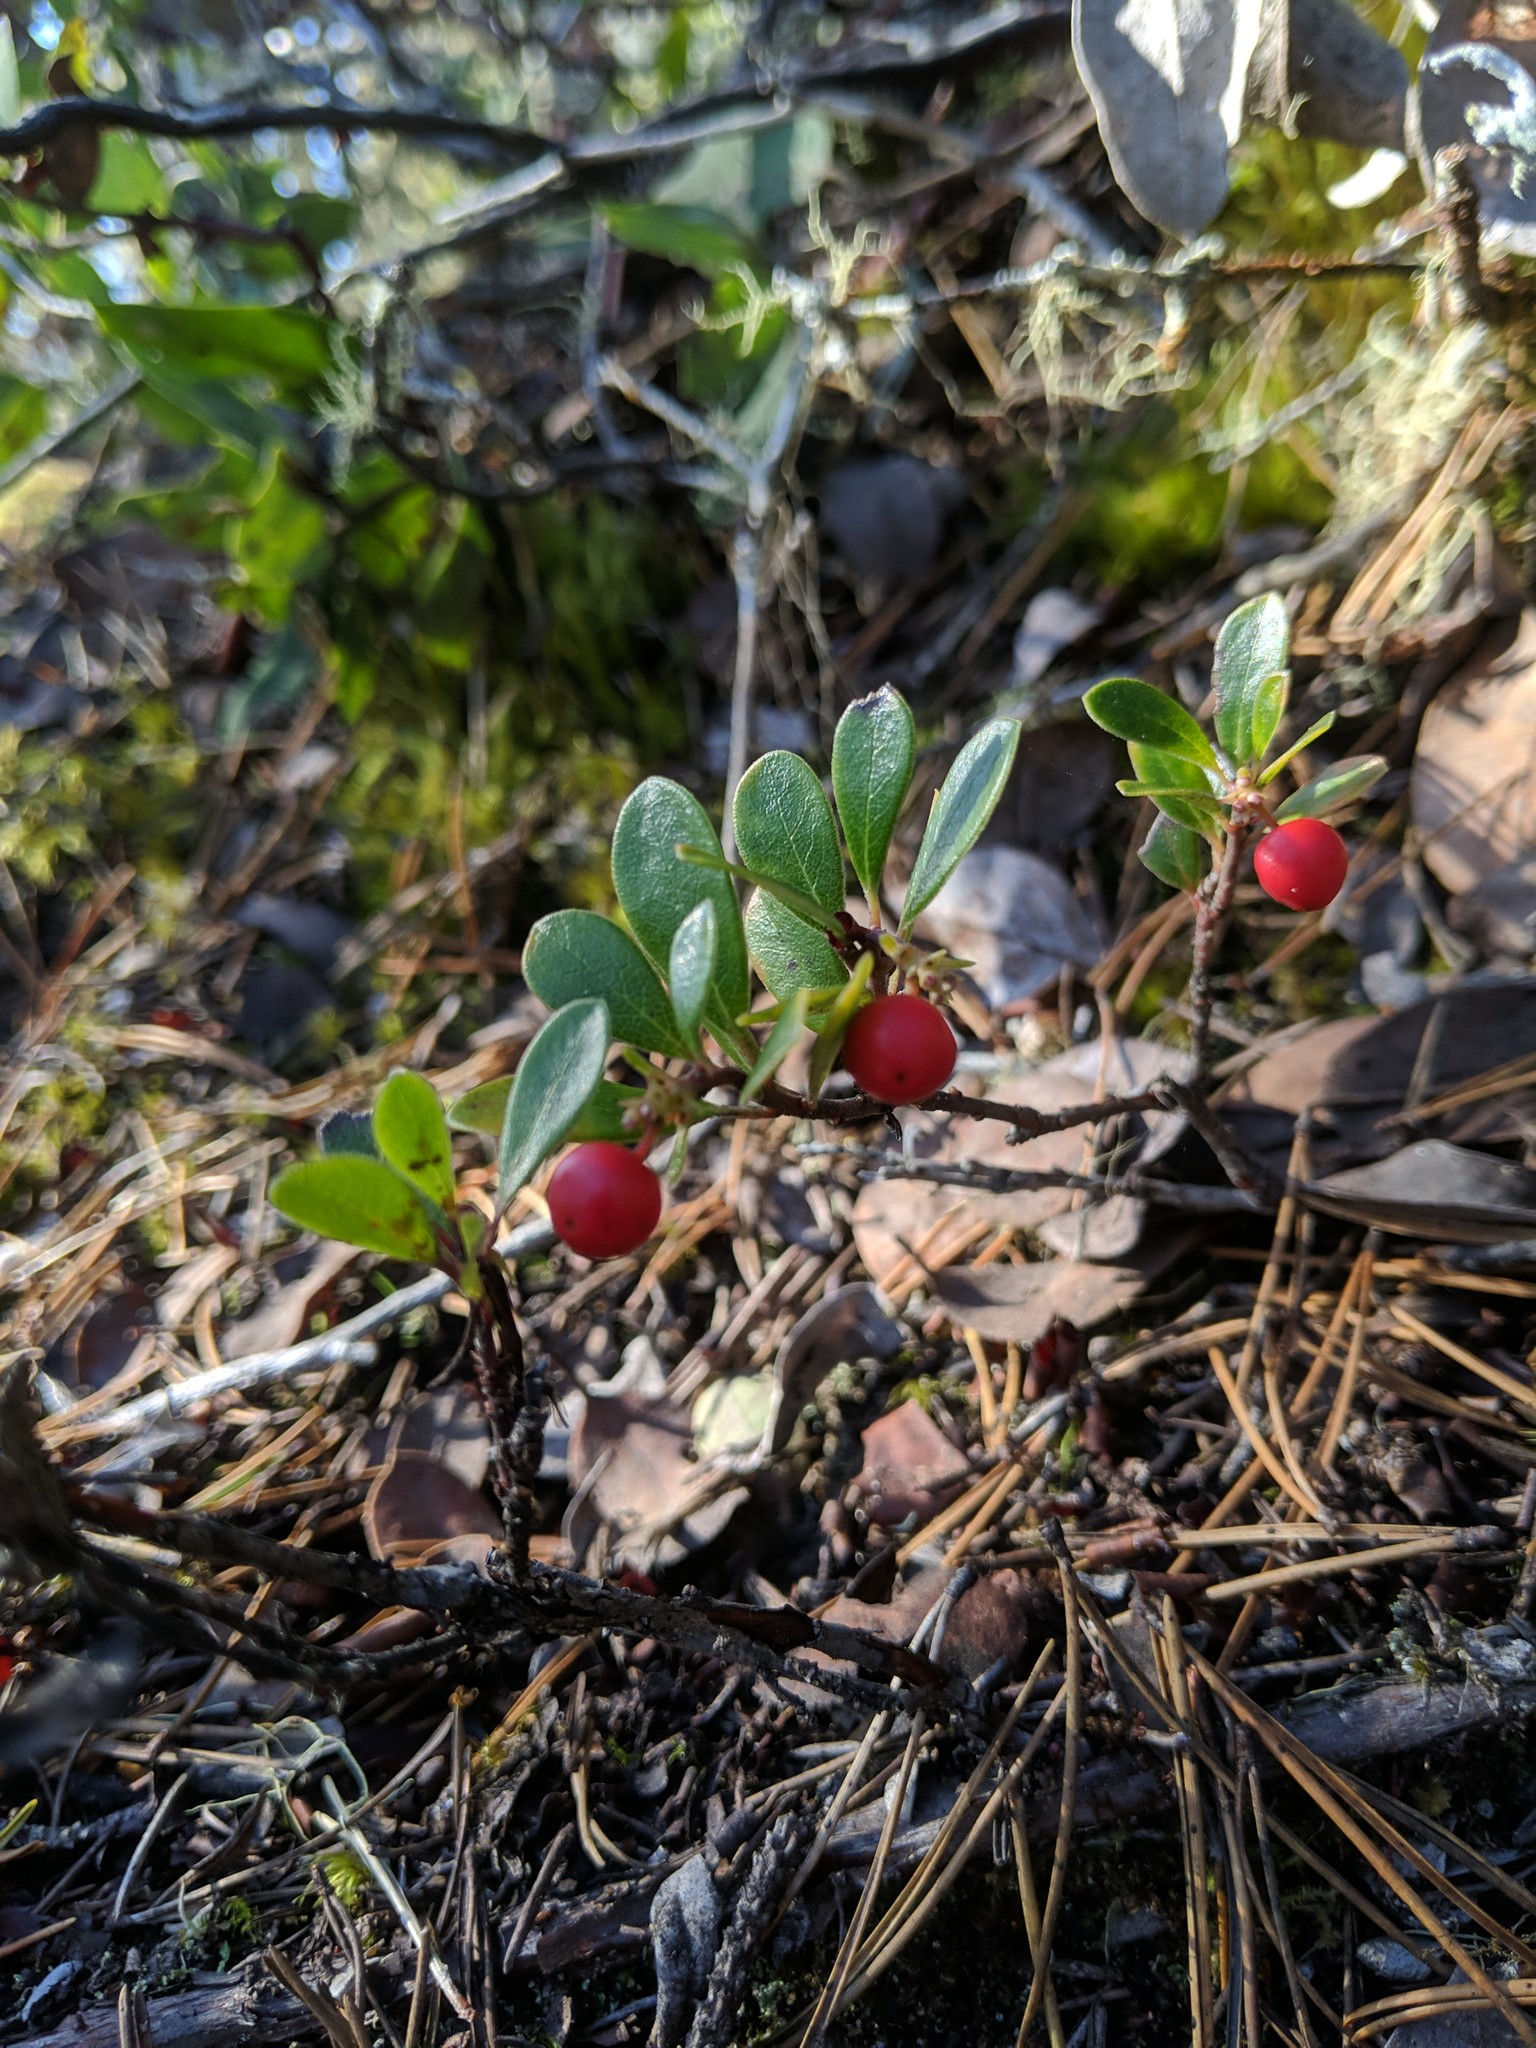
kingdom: Plantae
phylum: Tracheophyta
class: Magnoliopsida
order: Ericales
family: Ericaceae
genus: Arctostaphylos
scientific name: Arctostaphylos uva-ursi
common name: Bearberry
